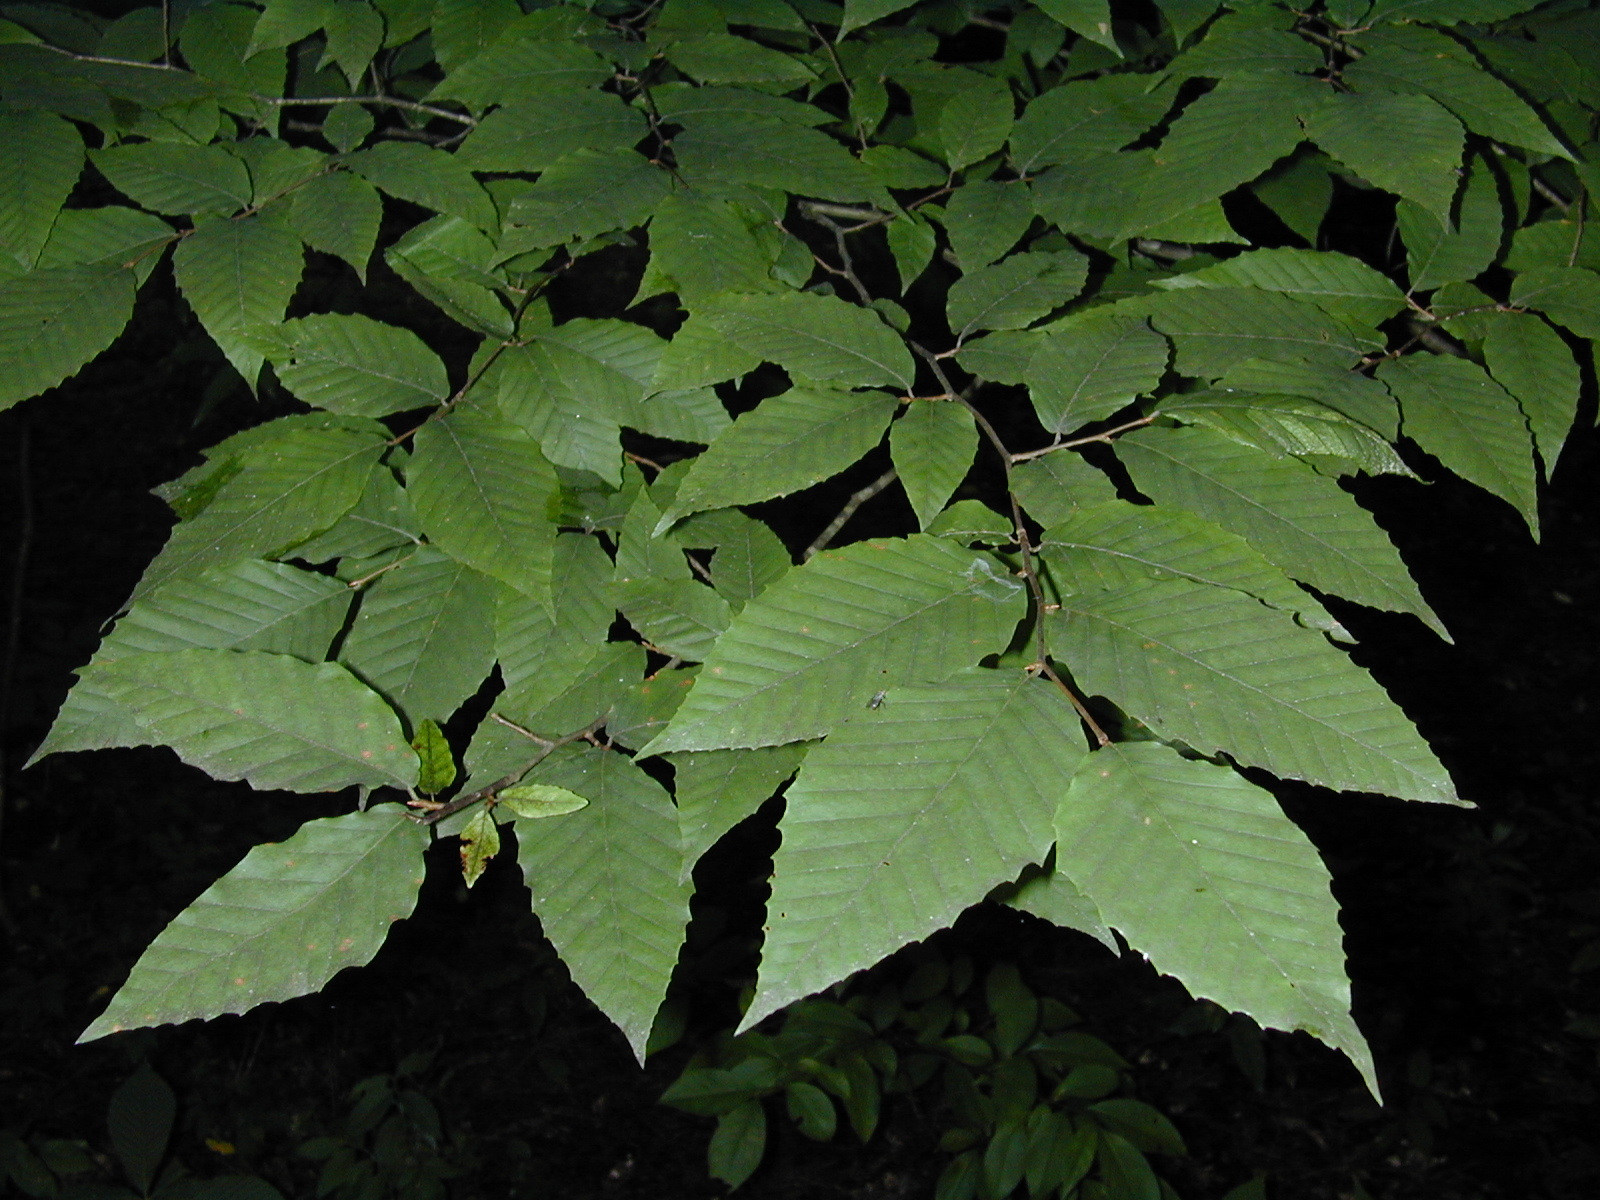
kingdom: Plantae
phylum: Tracheophyta
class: Magnoliopsida
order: Fagales
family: Fagaceae
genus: Fagus
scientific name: Fagus grandifolia
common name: American beech
